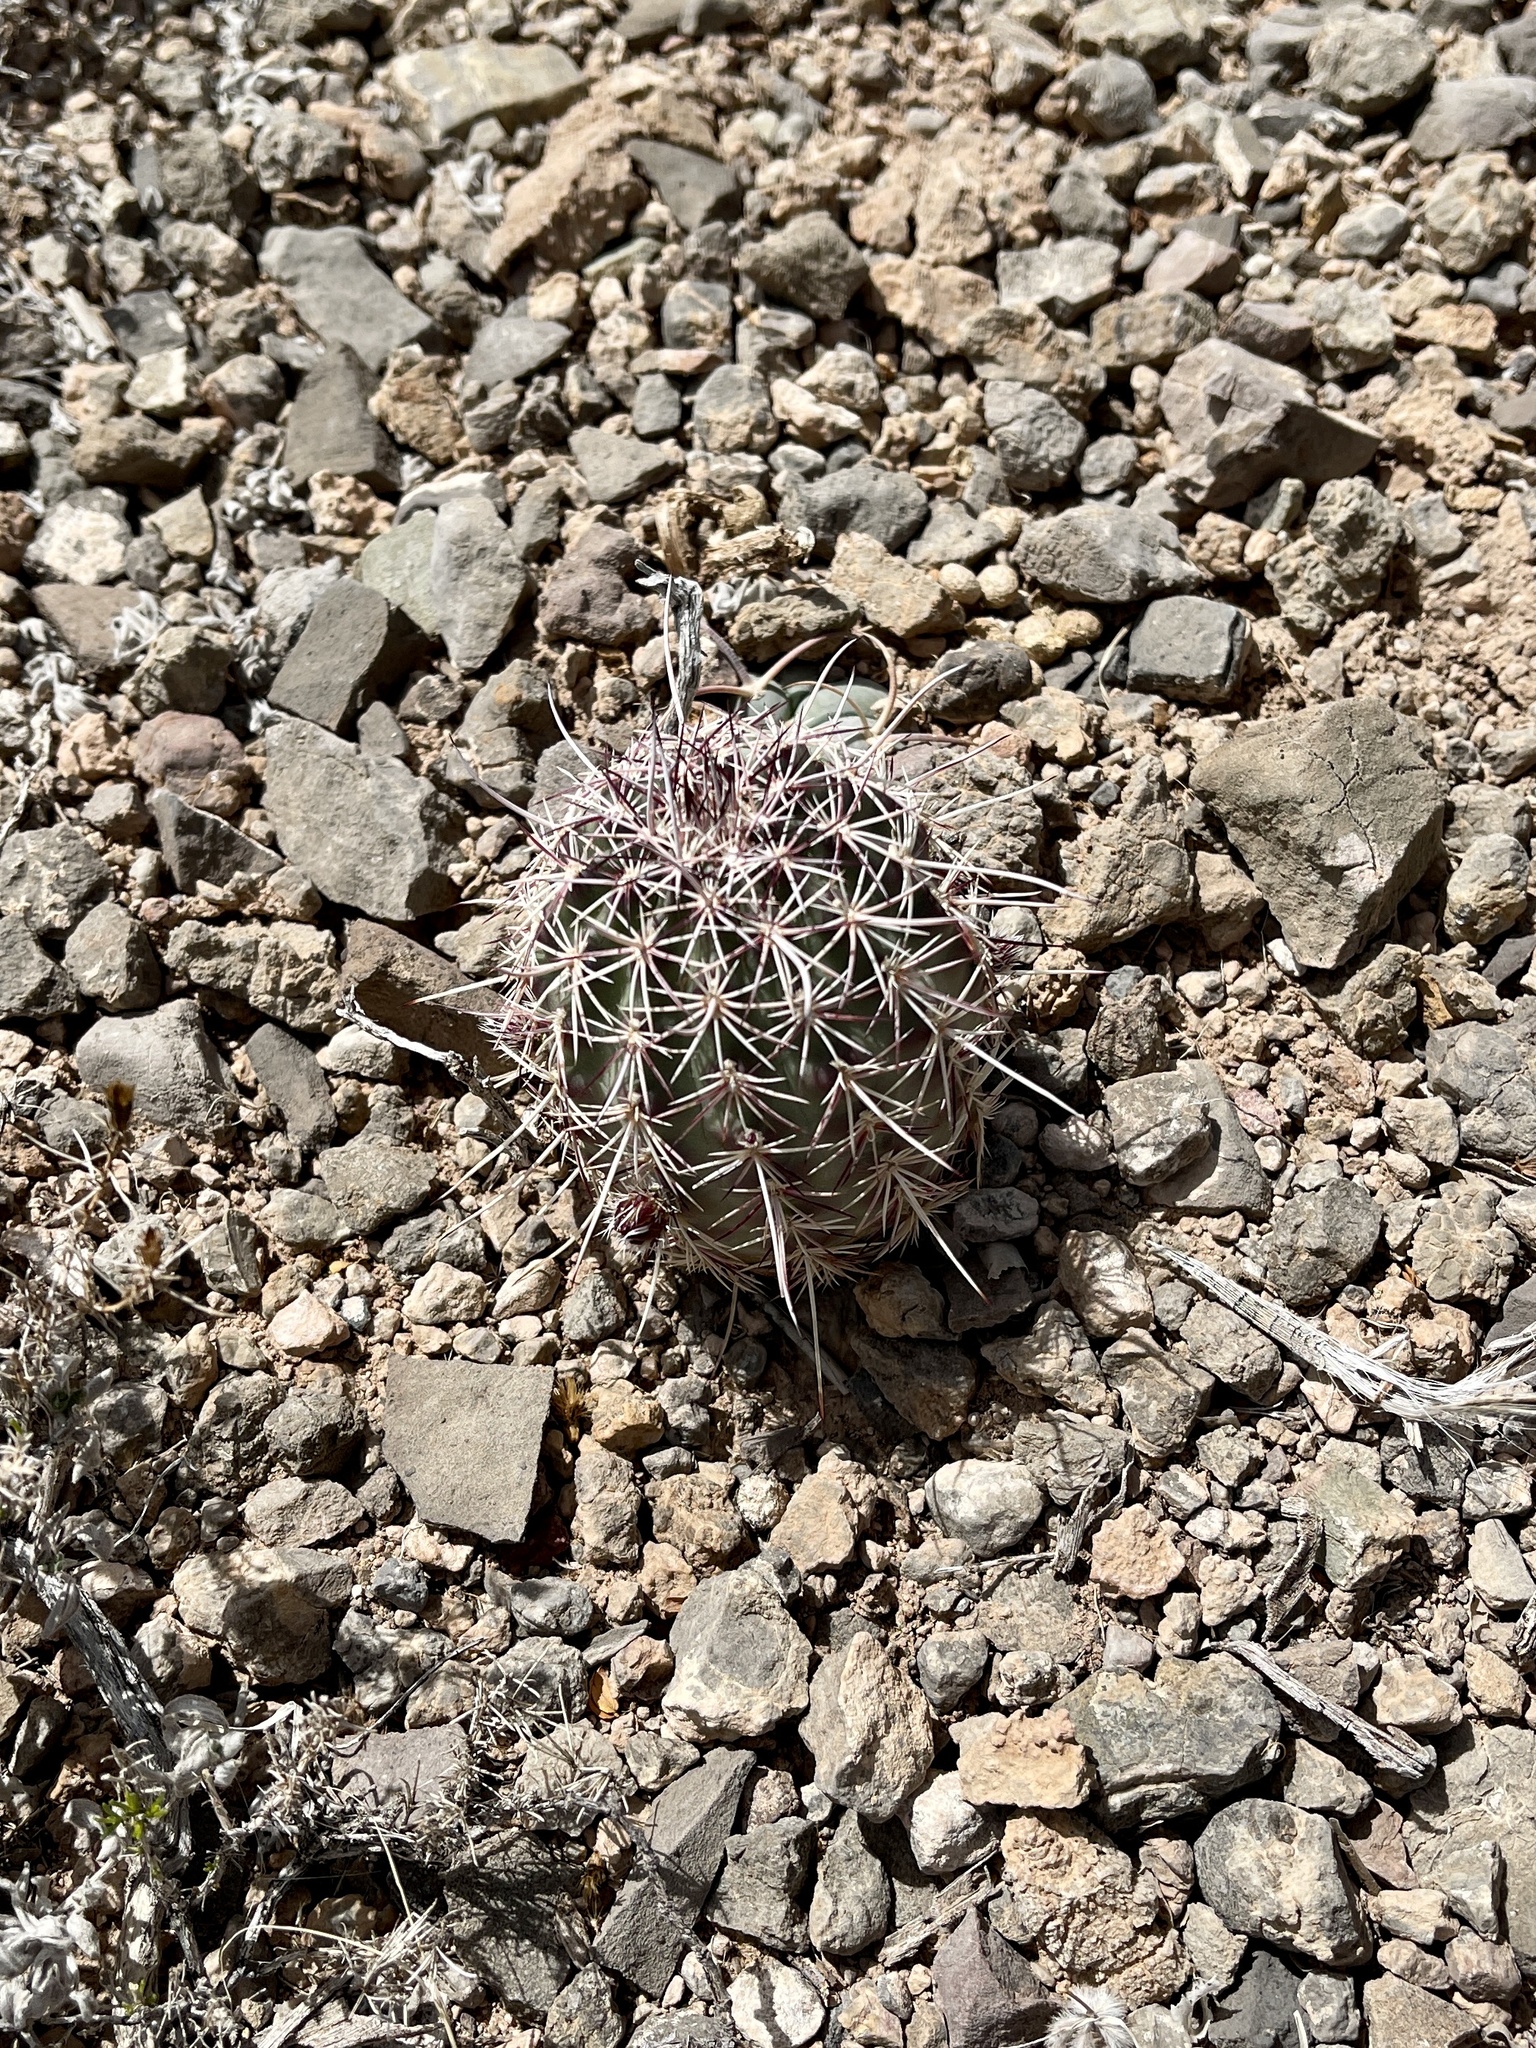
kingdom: Plantae
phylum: Tracheophyta
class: Magnoliopsida
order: Caryophyllales
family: Cactaceae
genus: Echinocereus
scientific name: Echinocereus viridiflorus
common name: Nylon hedgehog cactus
